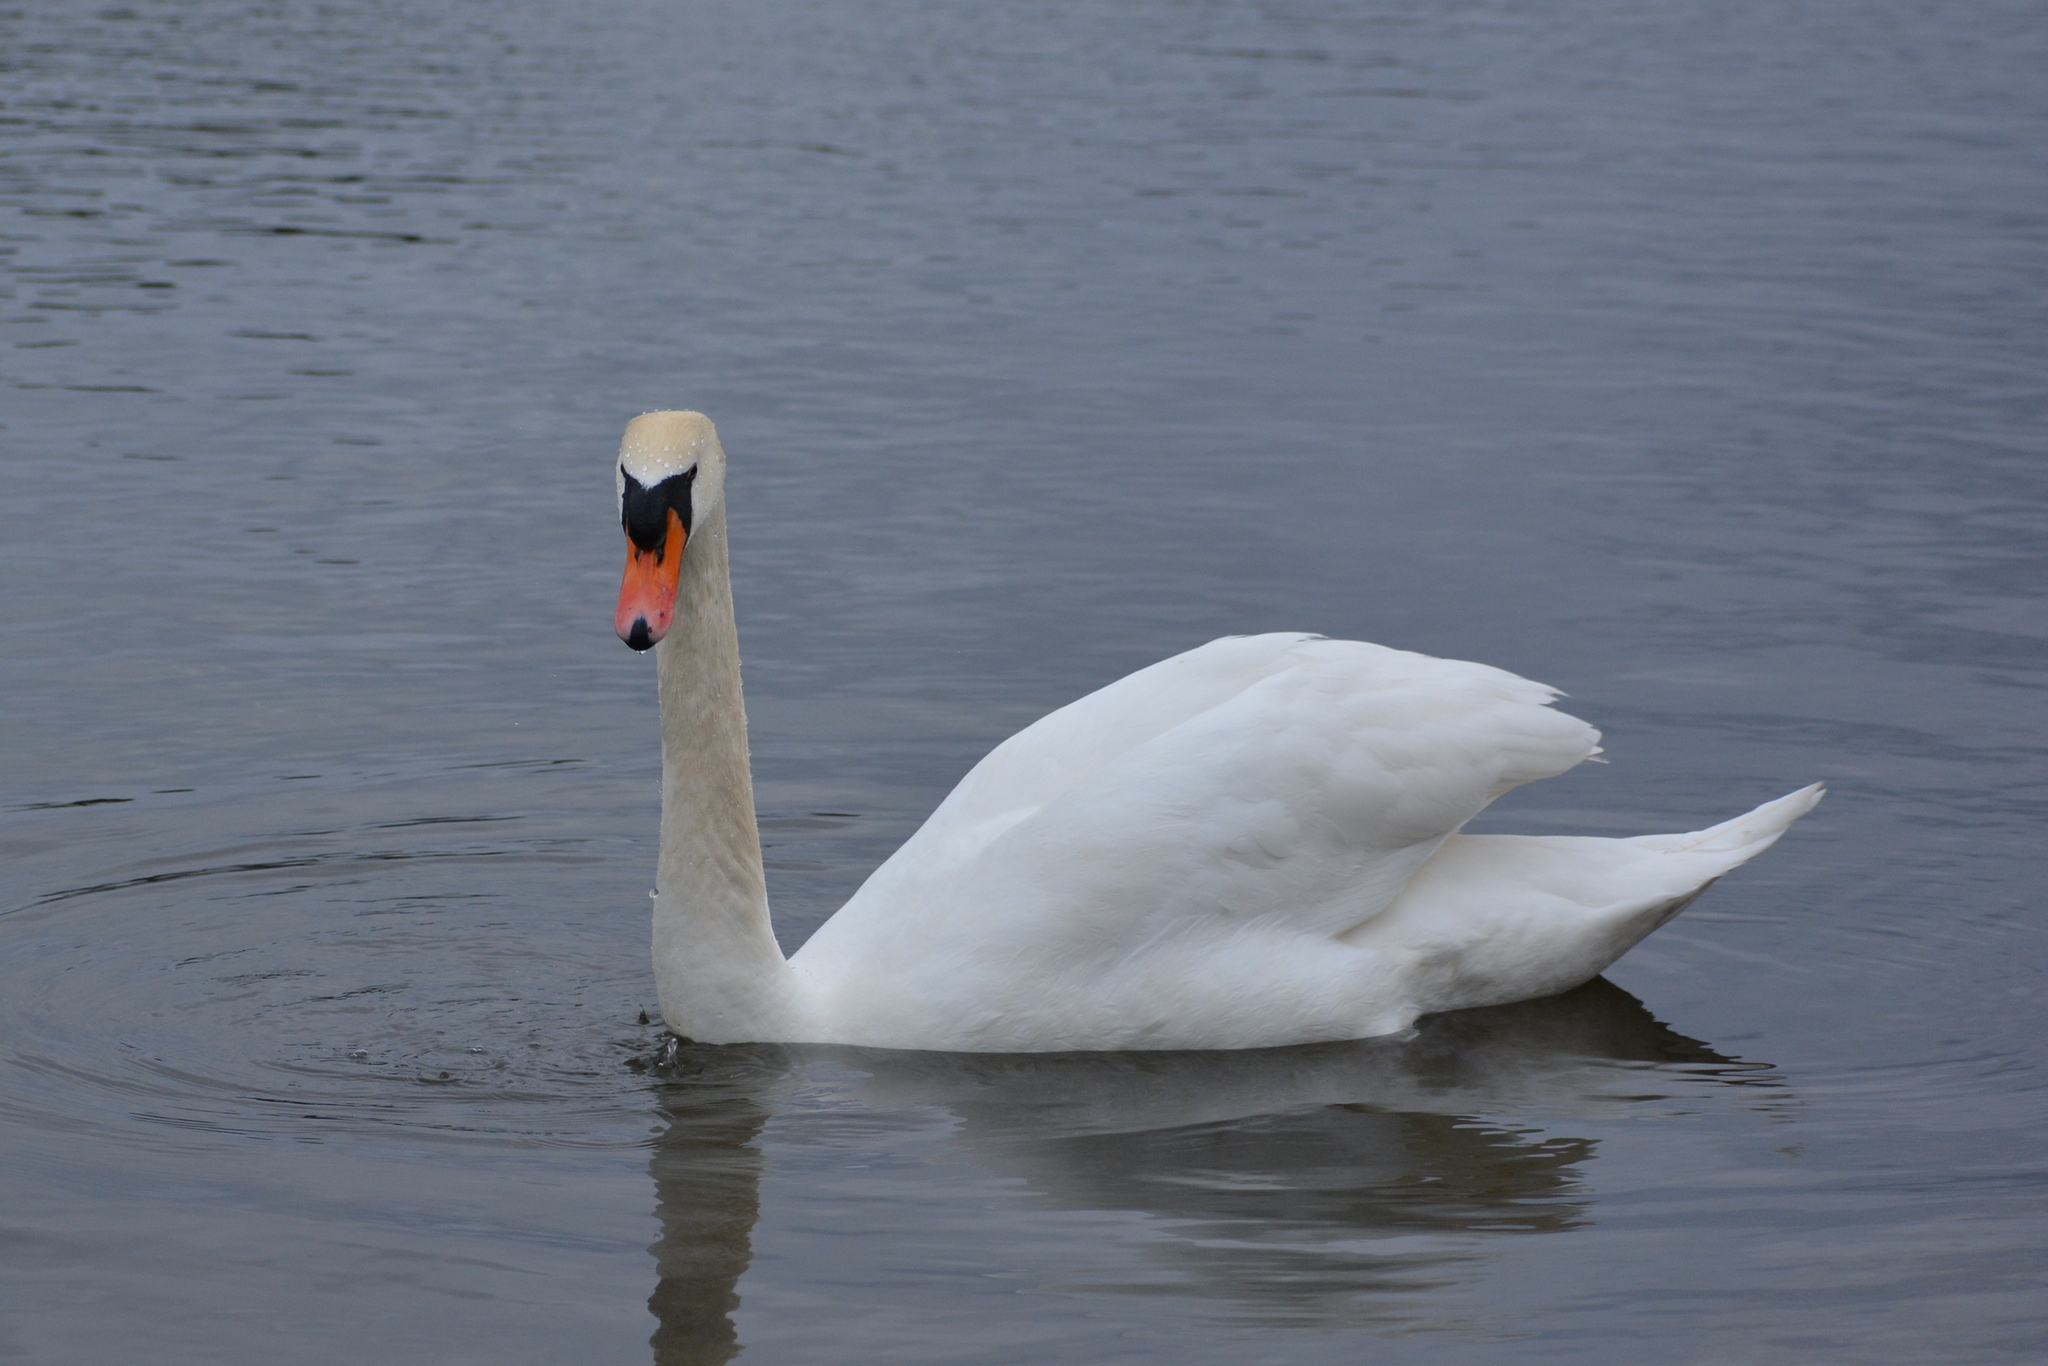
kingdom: Animalia
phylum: Chordata
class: Aves
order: Anseriformes
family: Anatidae
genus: Cygnus
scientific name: Cygnus olor
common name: Mute swan
